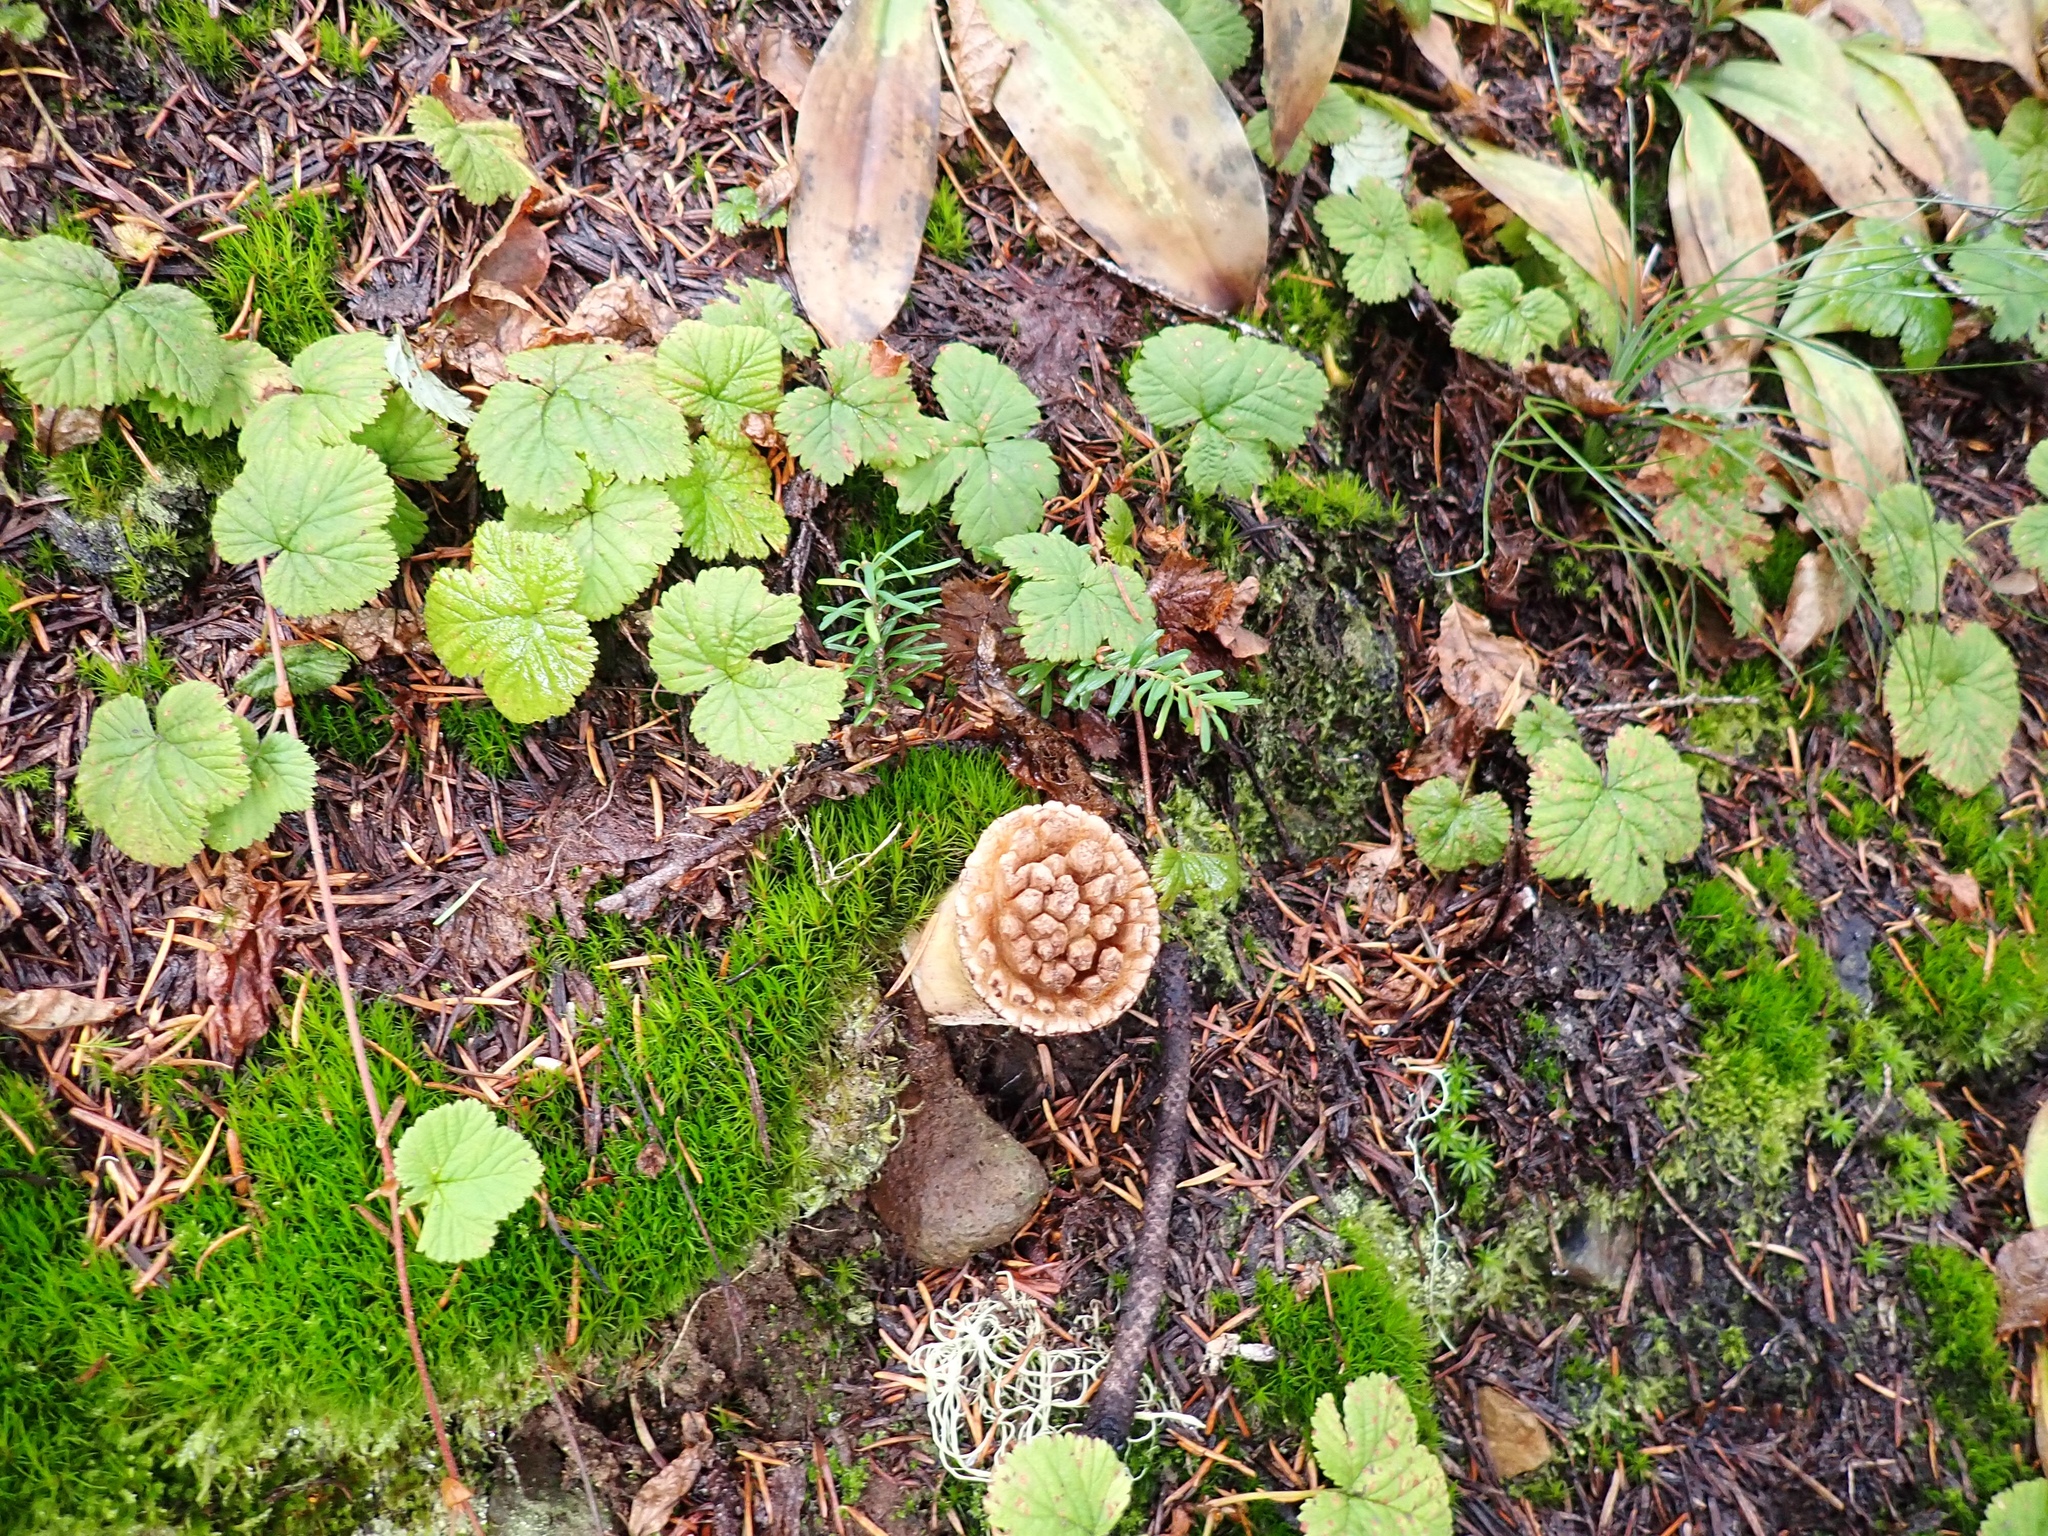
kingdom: Fungi
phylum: Basidiomycota
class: Agaricomycetes
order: Gomphales
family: Gomphaceae
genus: Turbinellus
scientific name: Turbinellus kauffmanii
